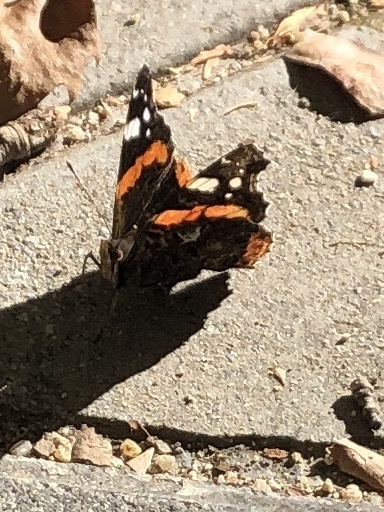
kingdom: Animalia
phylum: Arthropoda
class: Insecta
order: Lepidoptera
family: Nymphalidae
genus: Vanessa
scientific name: Vanessa atalanta
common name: Red admiral
